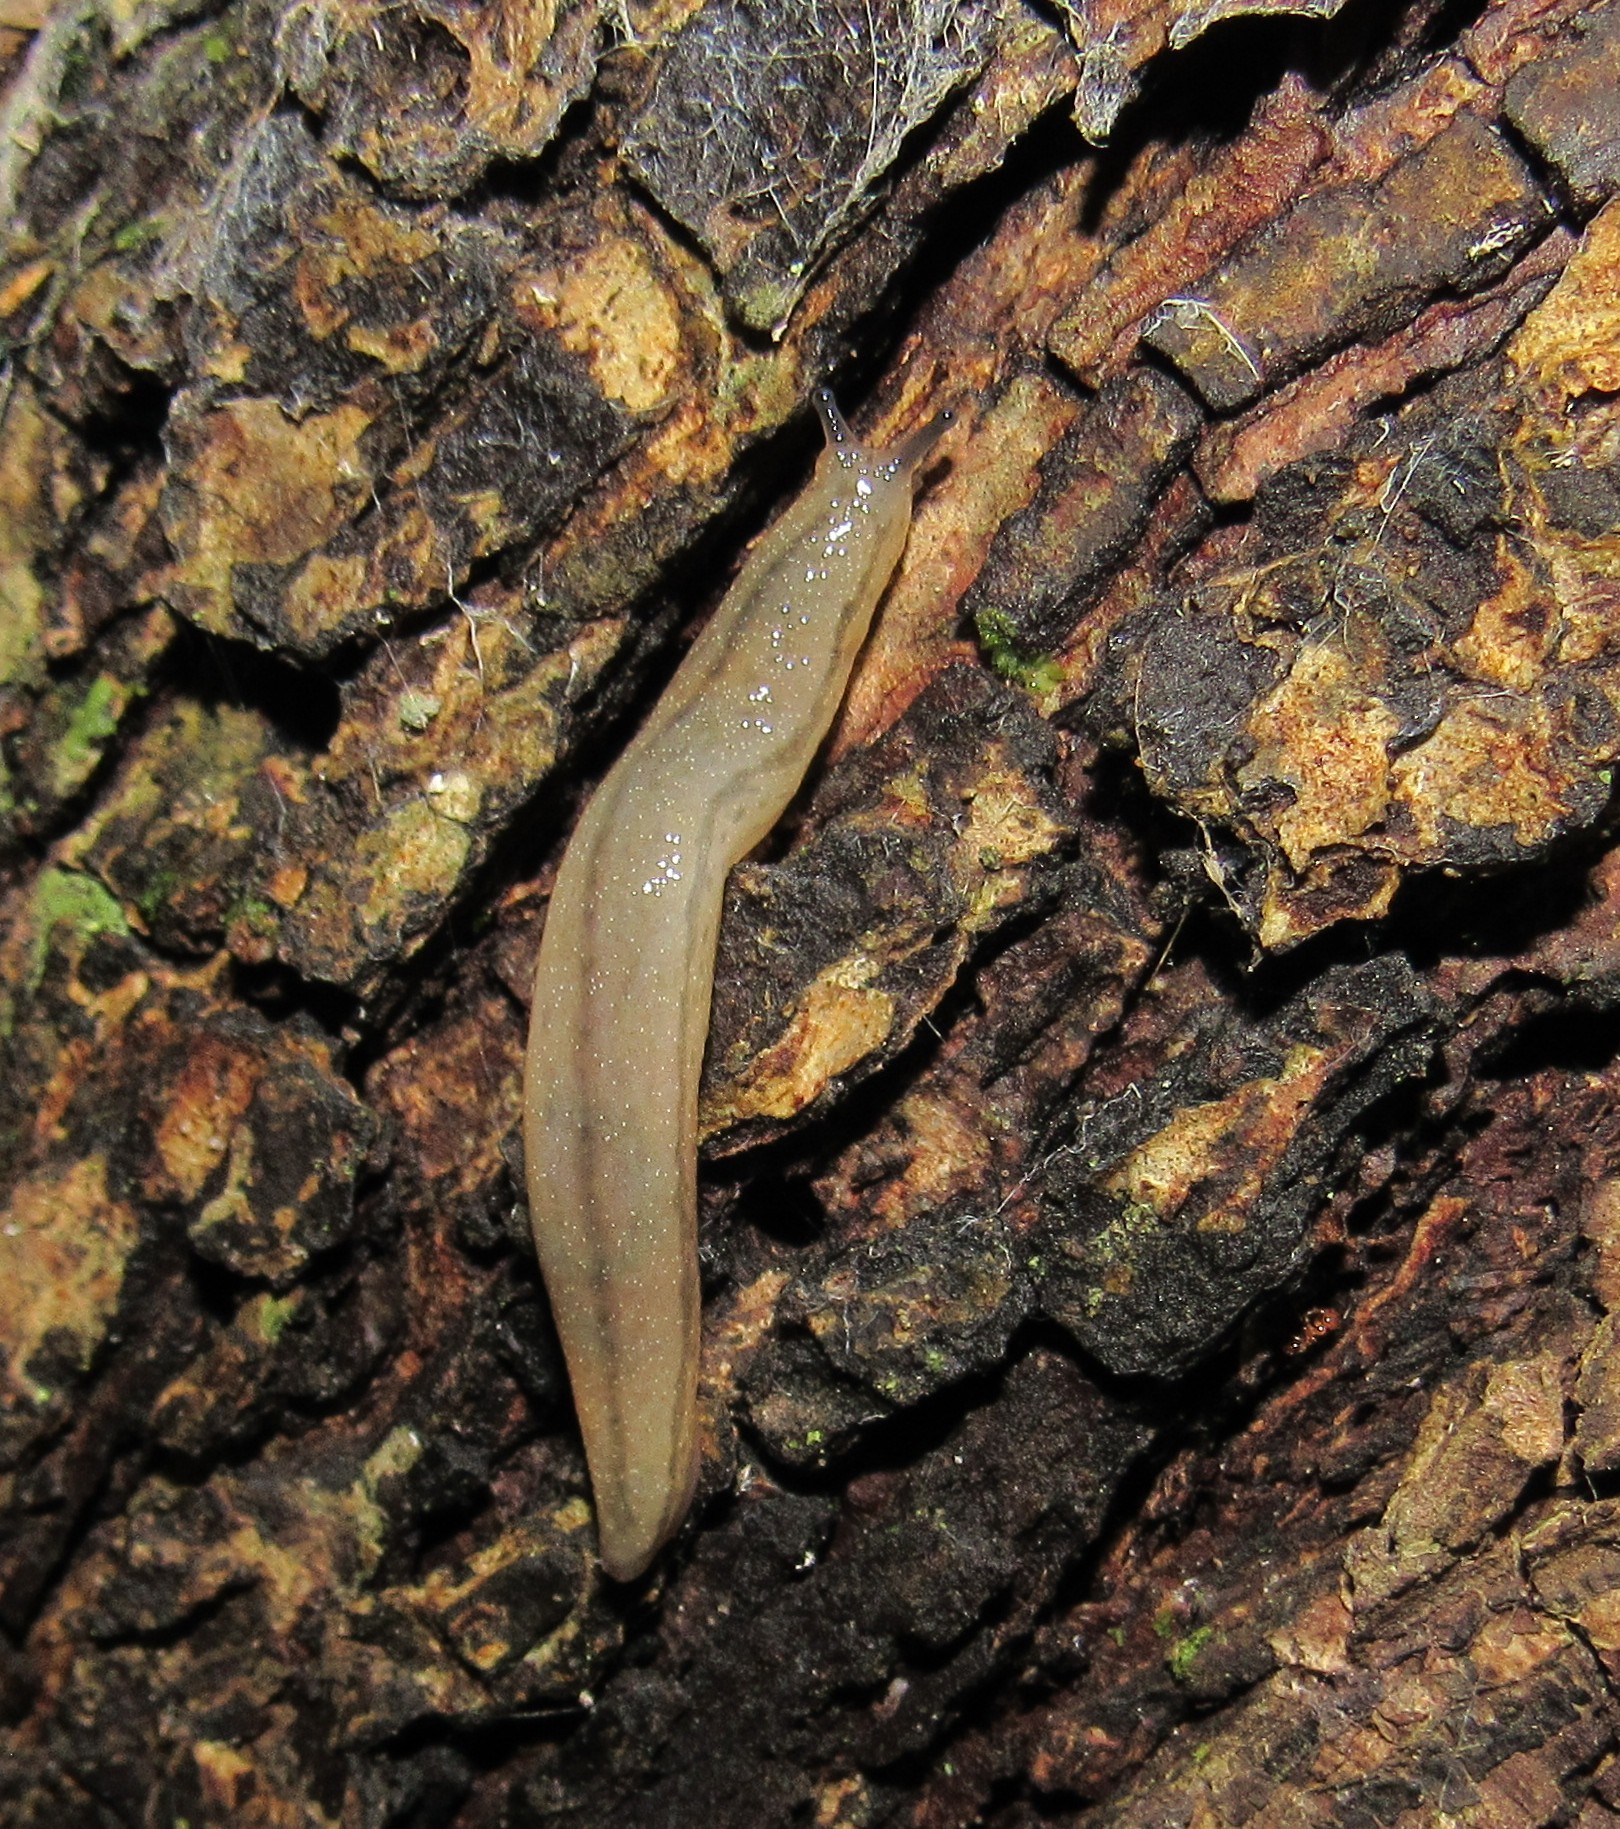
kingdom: Animalia
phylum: Mollusca
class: Gastropoda
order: Stylommatophora
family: Philomycidae
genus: Meghimatium
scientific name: Meghimatium pictum
